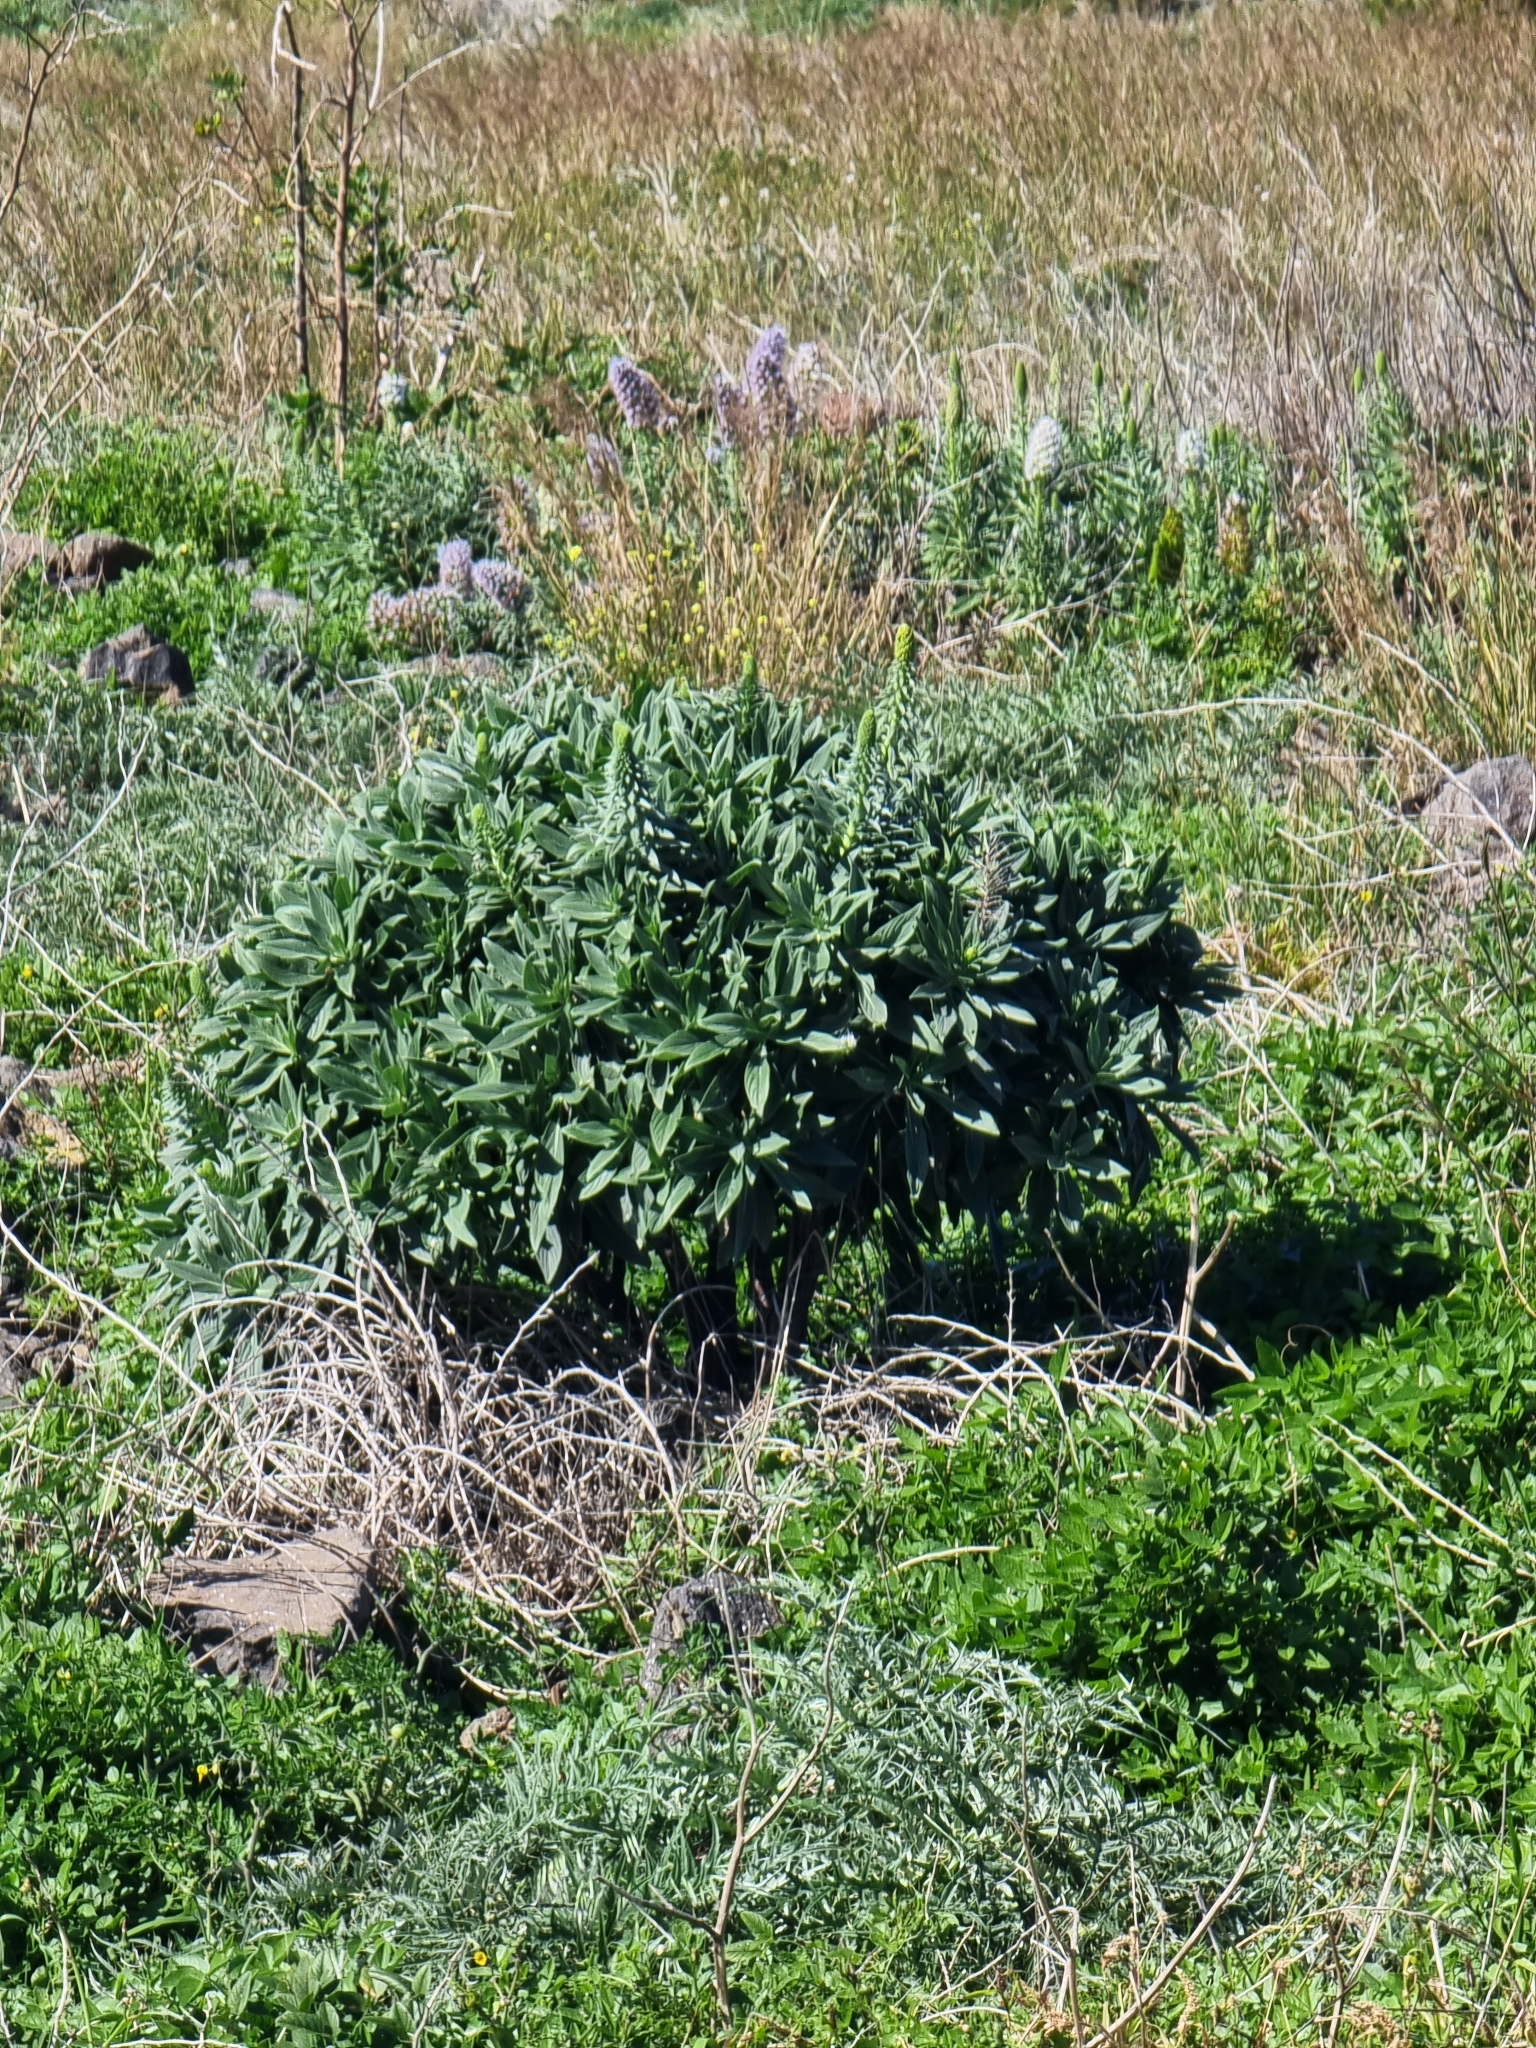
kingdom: Plantae
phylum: Tracheophyta
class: Magnoliopsida
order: Boraginales
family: Boraginaceae
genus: Echium
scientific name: Echium nervosum
